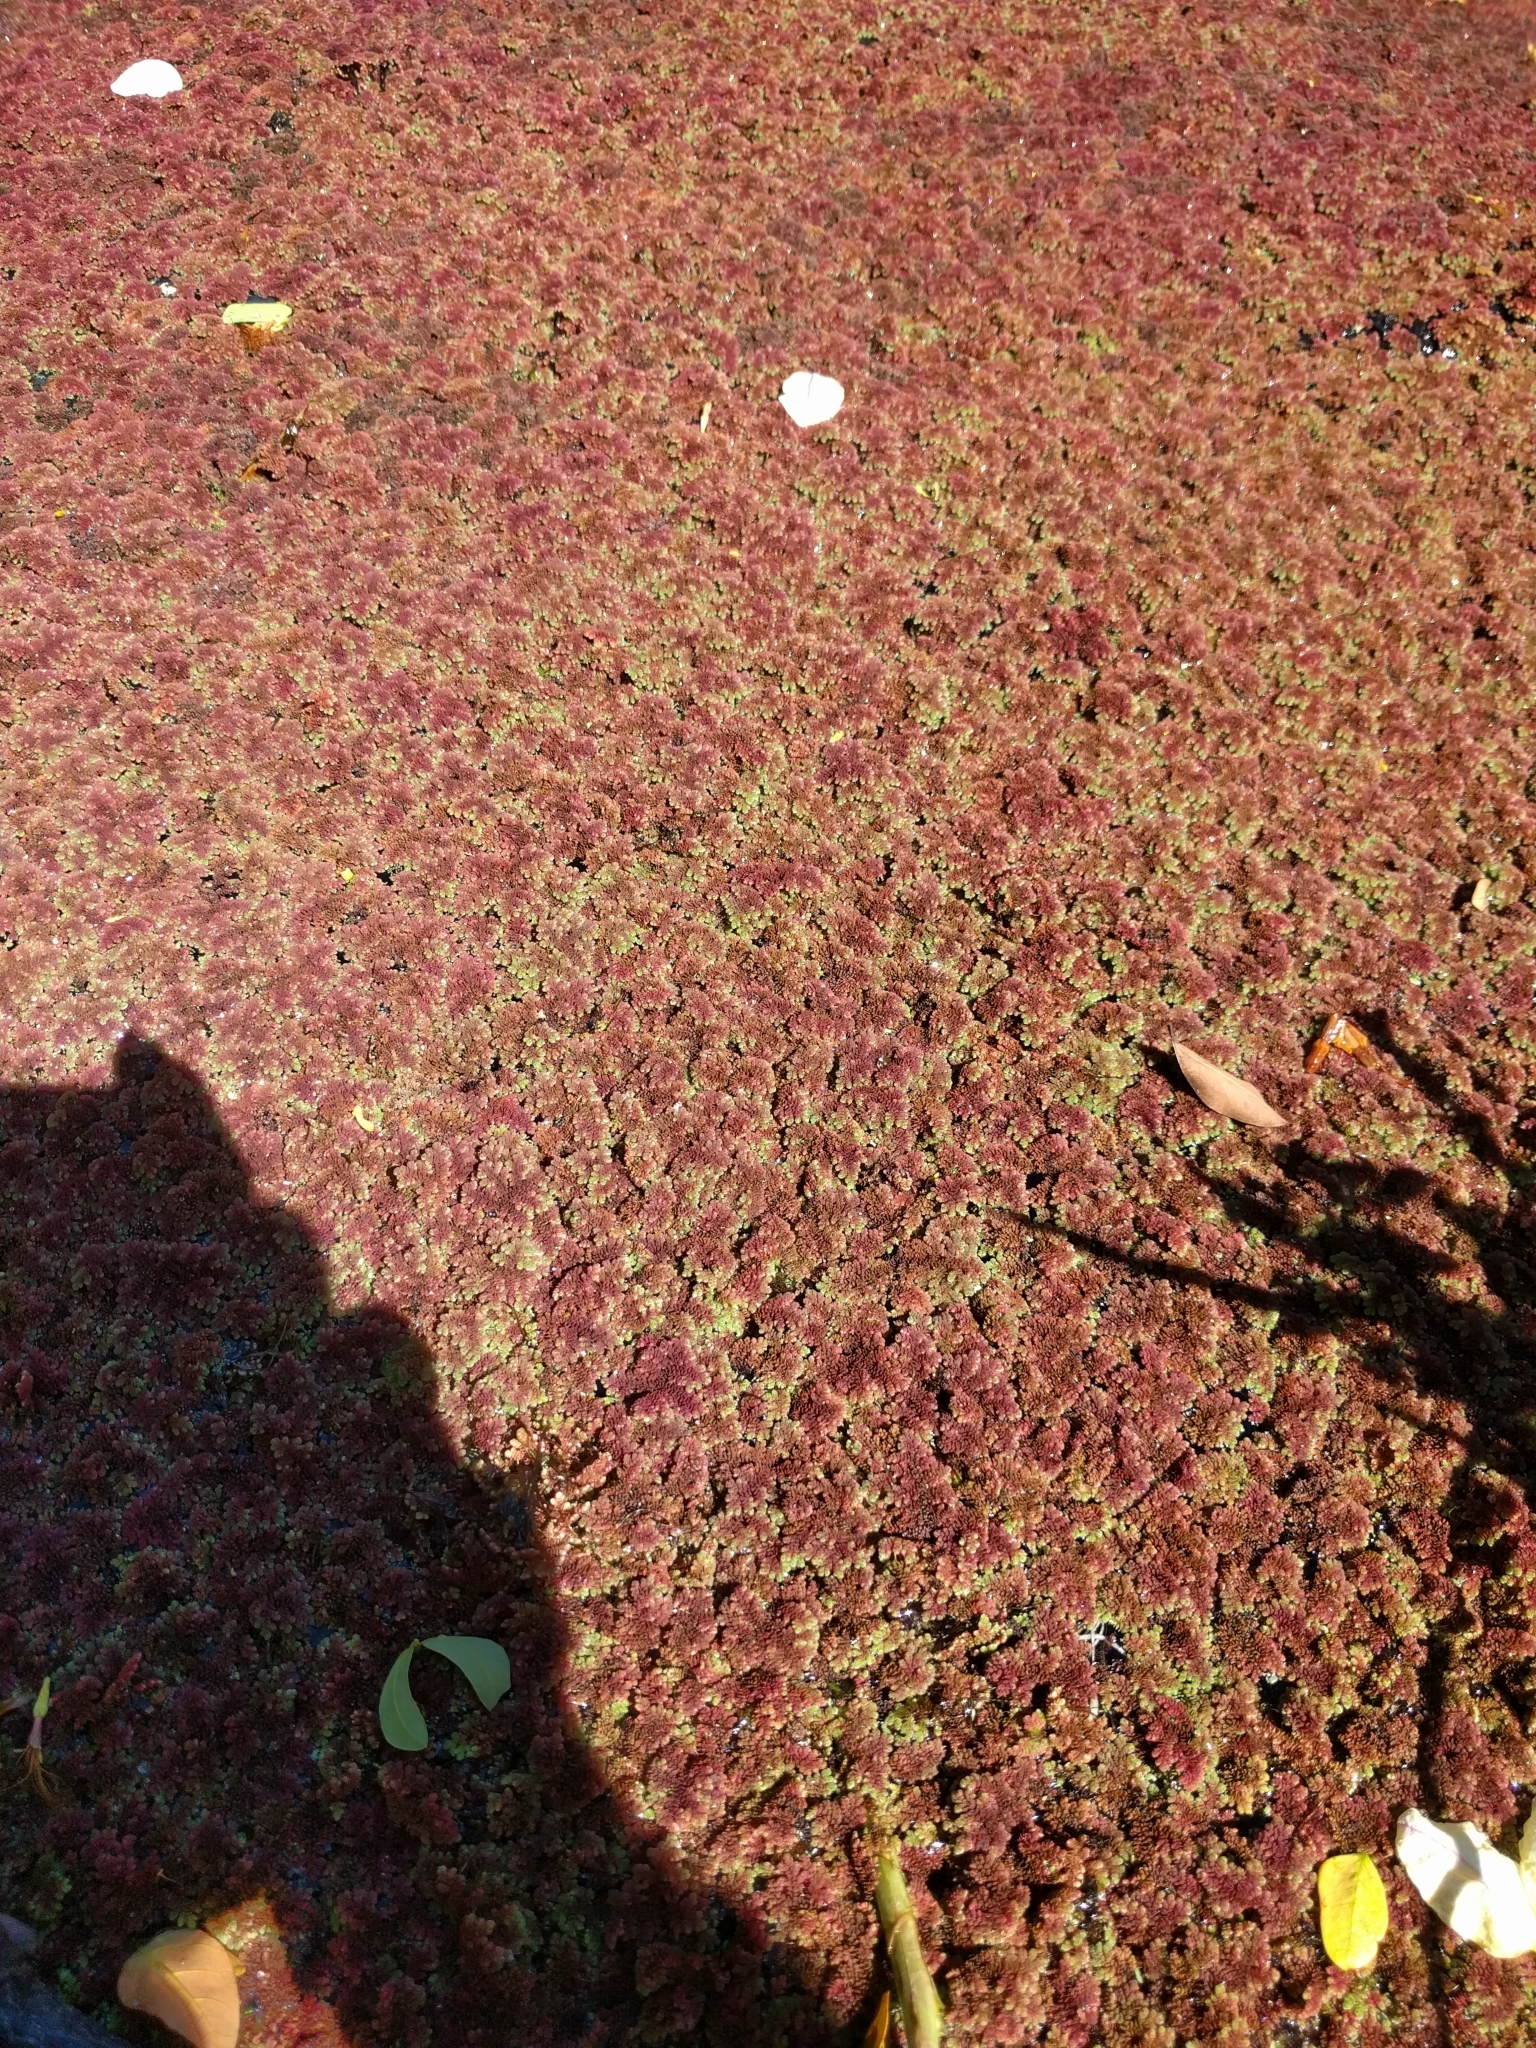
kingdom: Plantae
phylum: Tracheophyta
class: Polypodiopsida
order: Salviniales
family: Salviniaceae
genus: Azolla
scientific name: Azolla filiculoides
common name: Water fern
